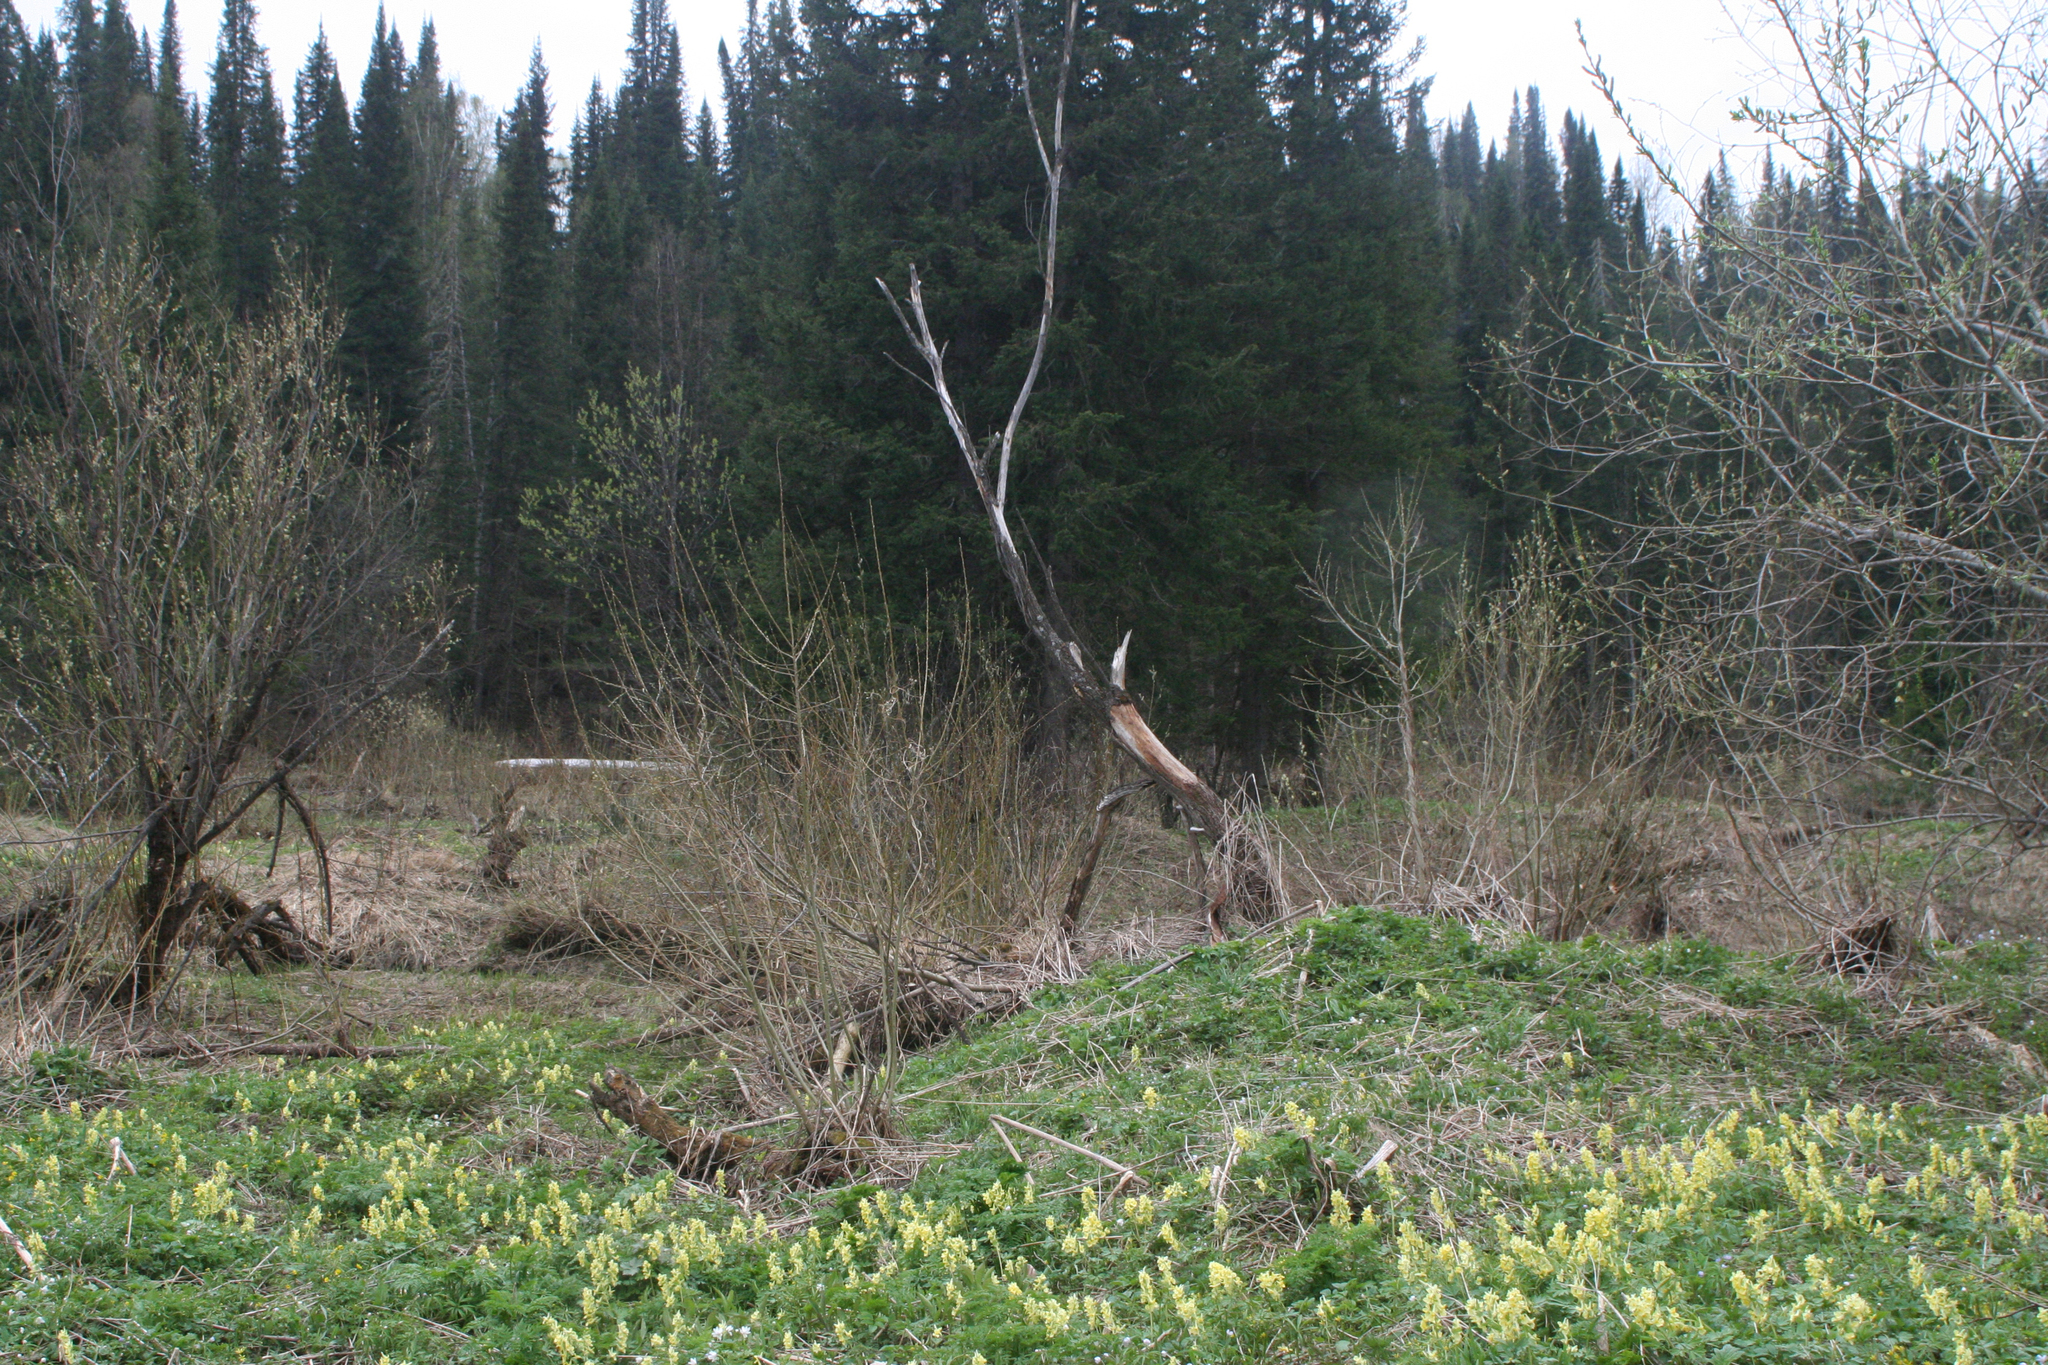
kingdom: Plantae
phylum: Tracheophyta
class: Magnoliopsida
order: Ranunculales
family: Papaveraceae
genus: Corydalis
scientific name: Corydalis bracteata
